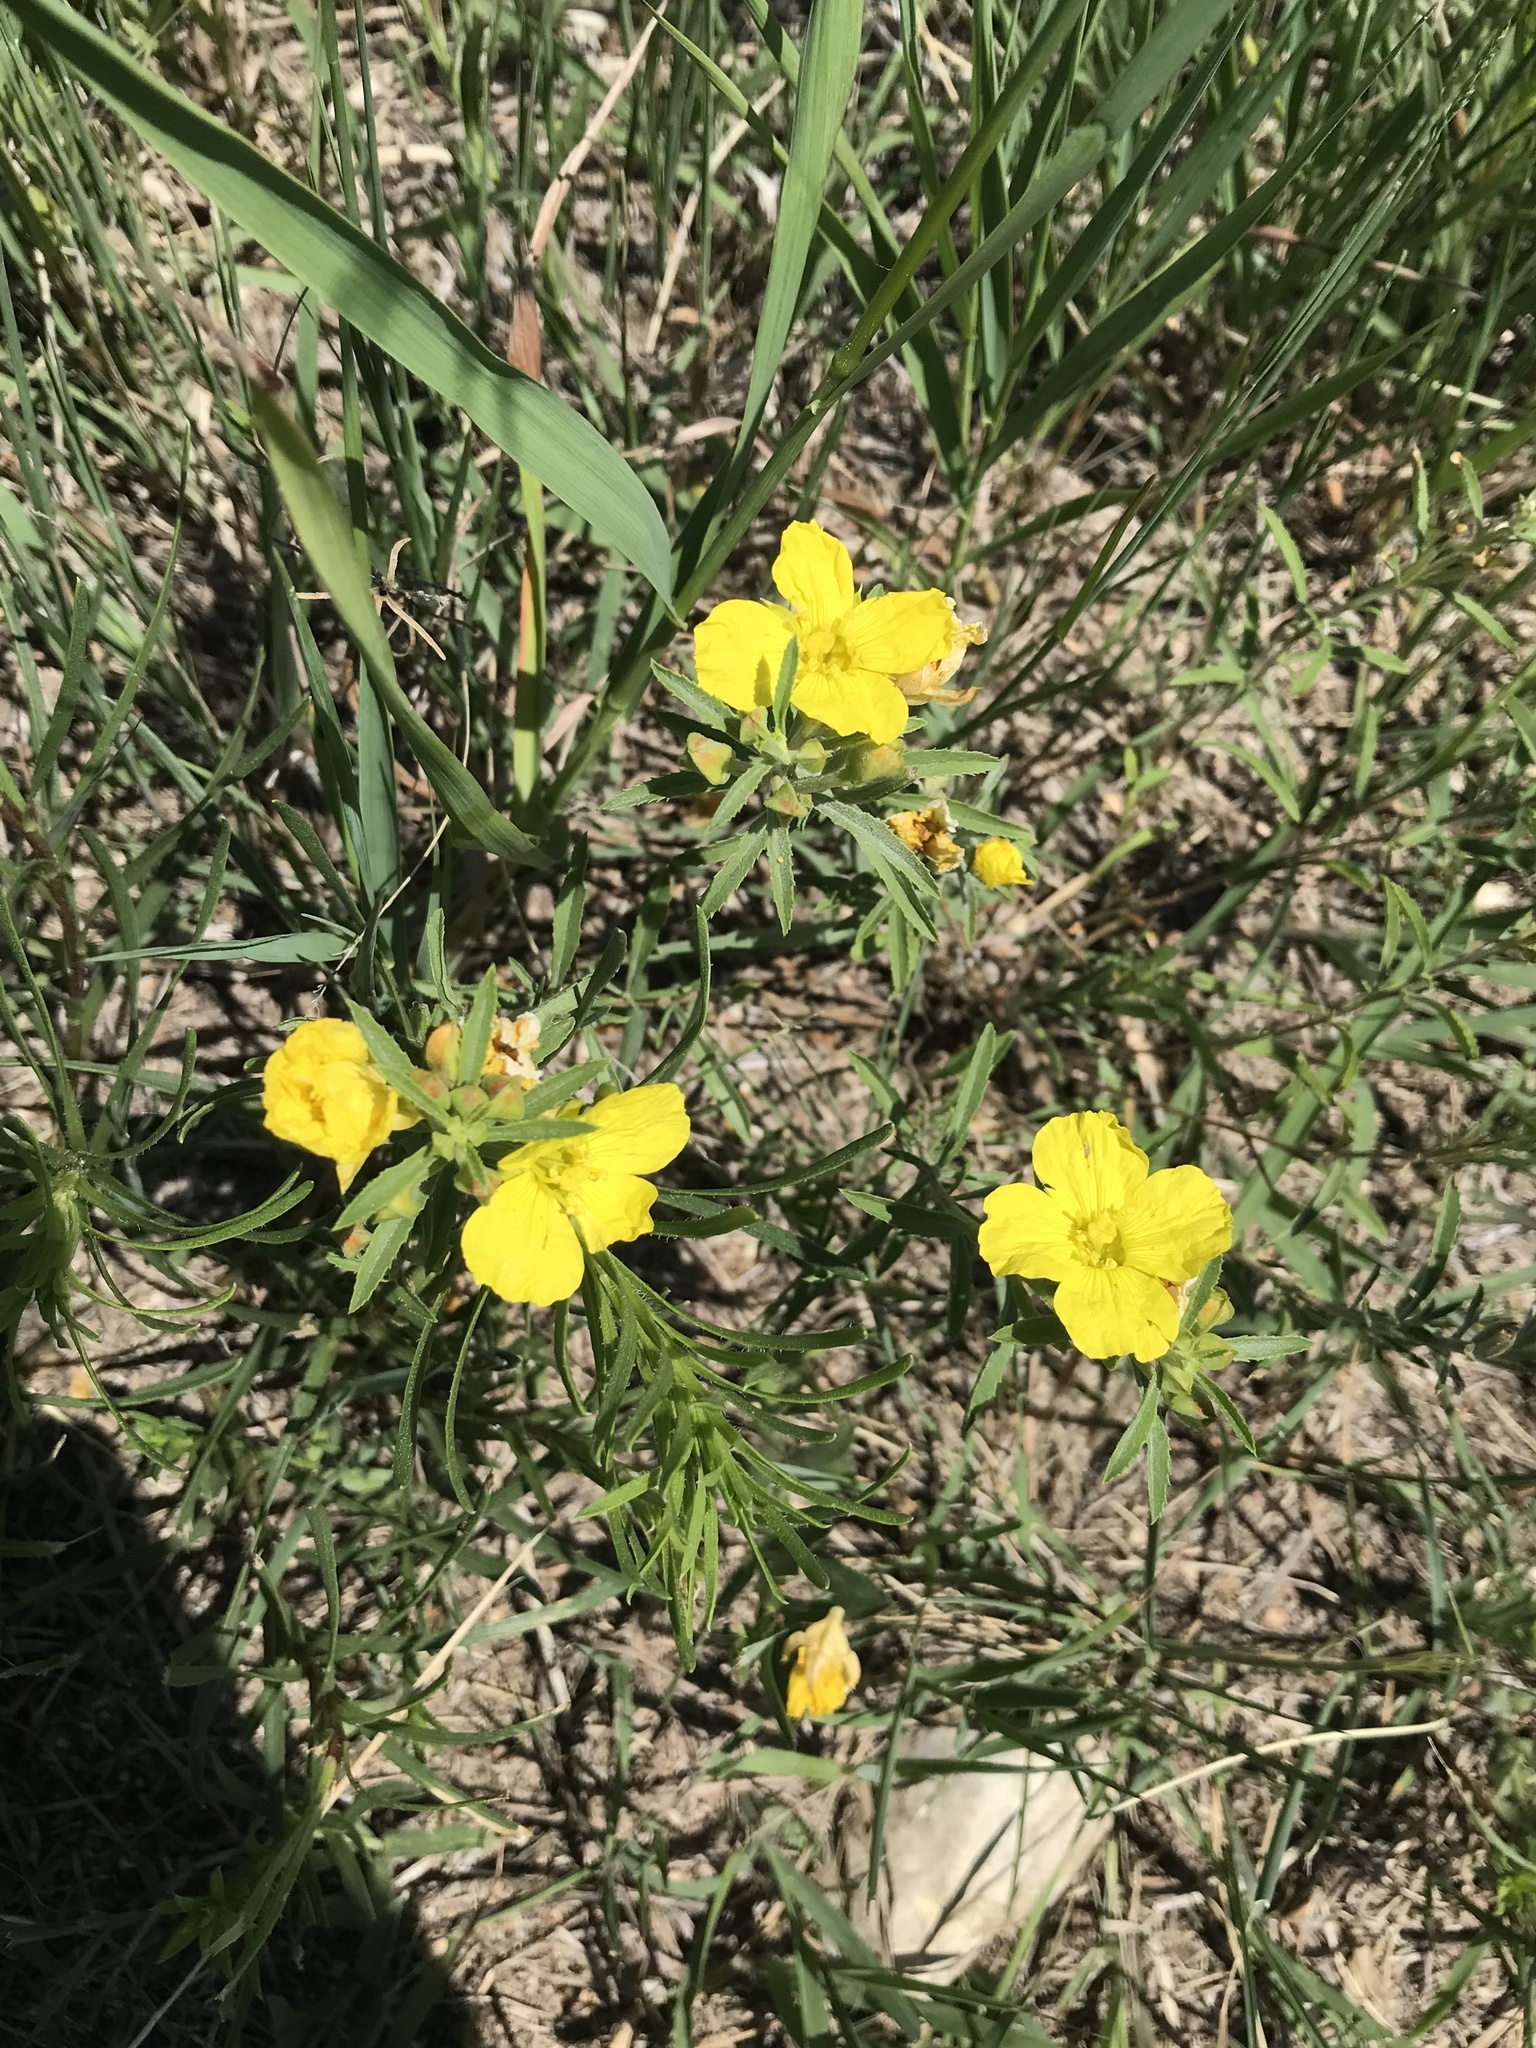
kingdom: Plantae
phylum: Tracheophyta
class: Magnoliopsida
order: Myrtales
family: Onagraceae
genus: Oenothera
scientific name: Oenothera serrulata
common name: Half-shrub calylophus
